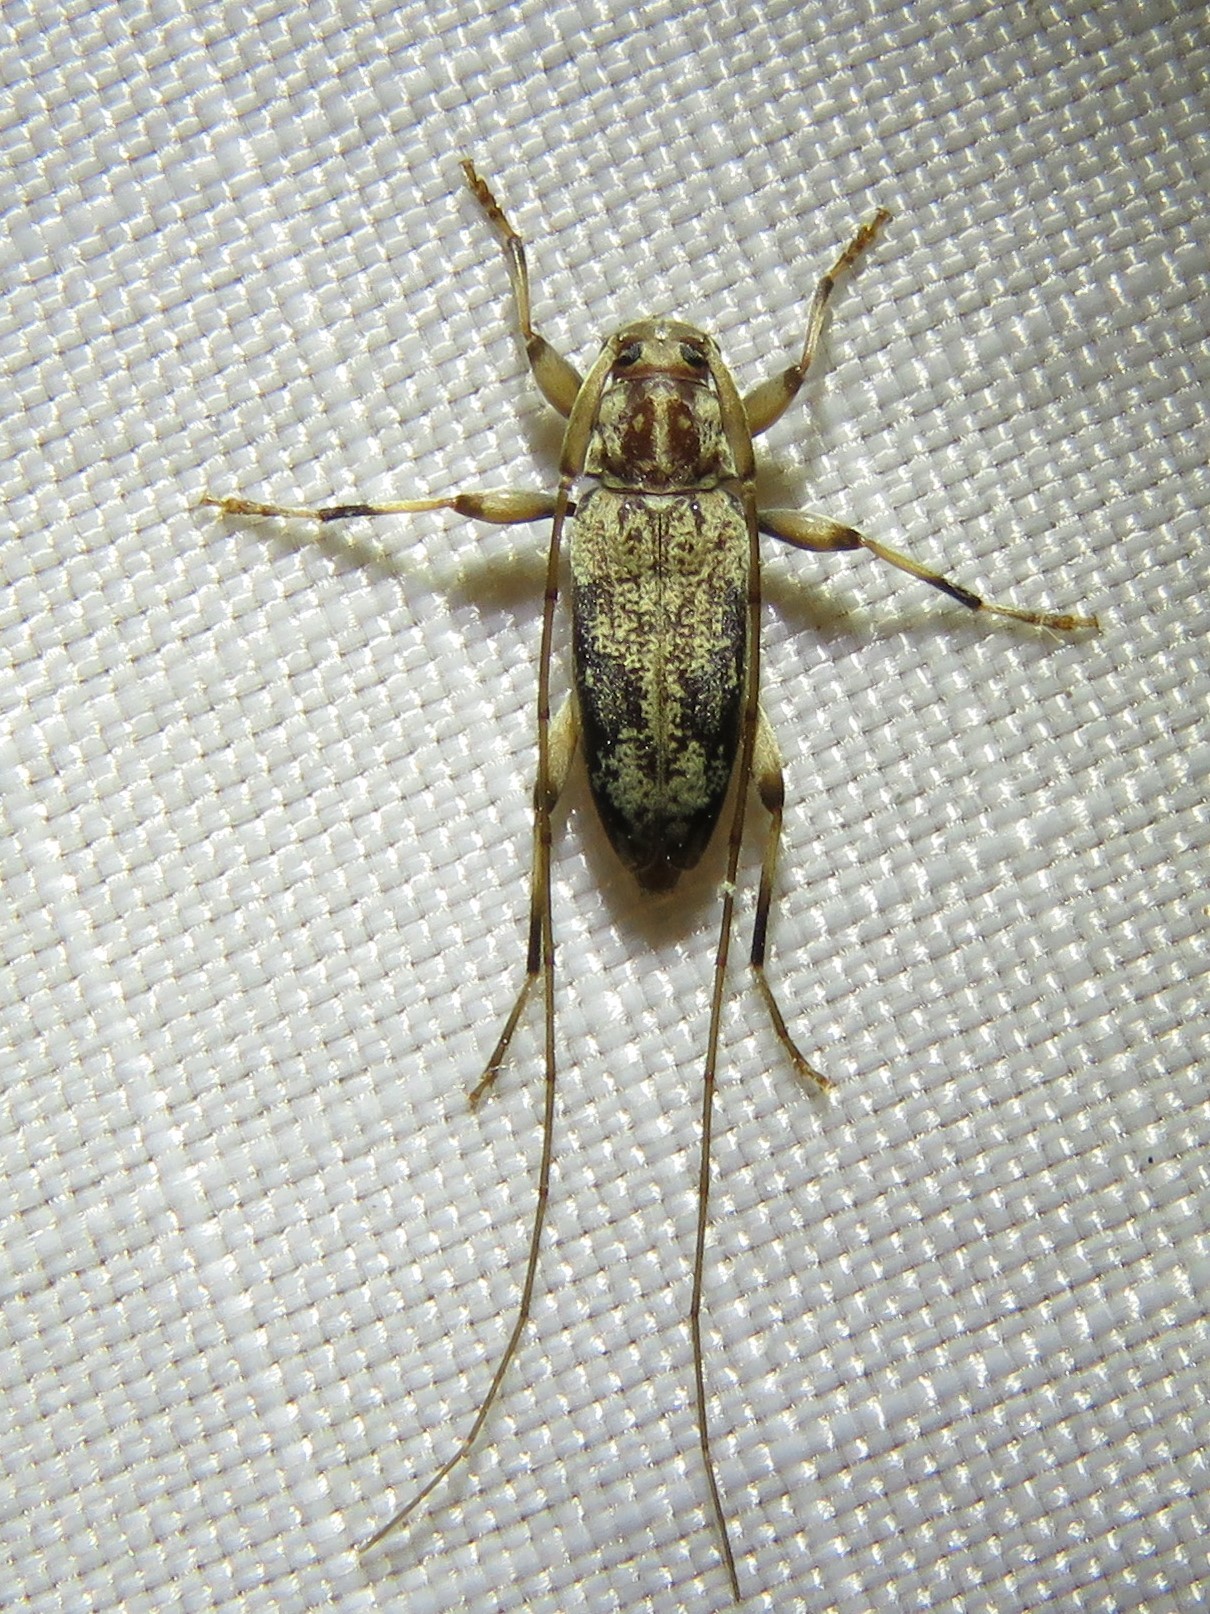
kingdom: Animalia
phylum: Arthropoda
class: Insecta
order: Coleoptera
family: Cerambycidae
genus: Lepturges
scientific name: Lepturges angulatus
